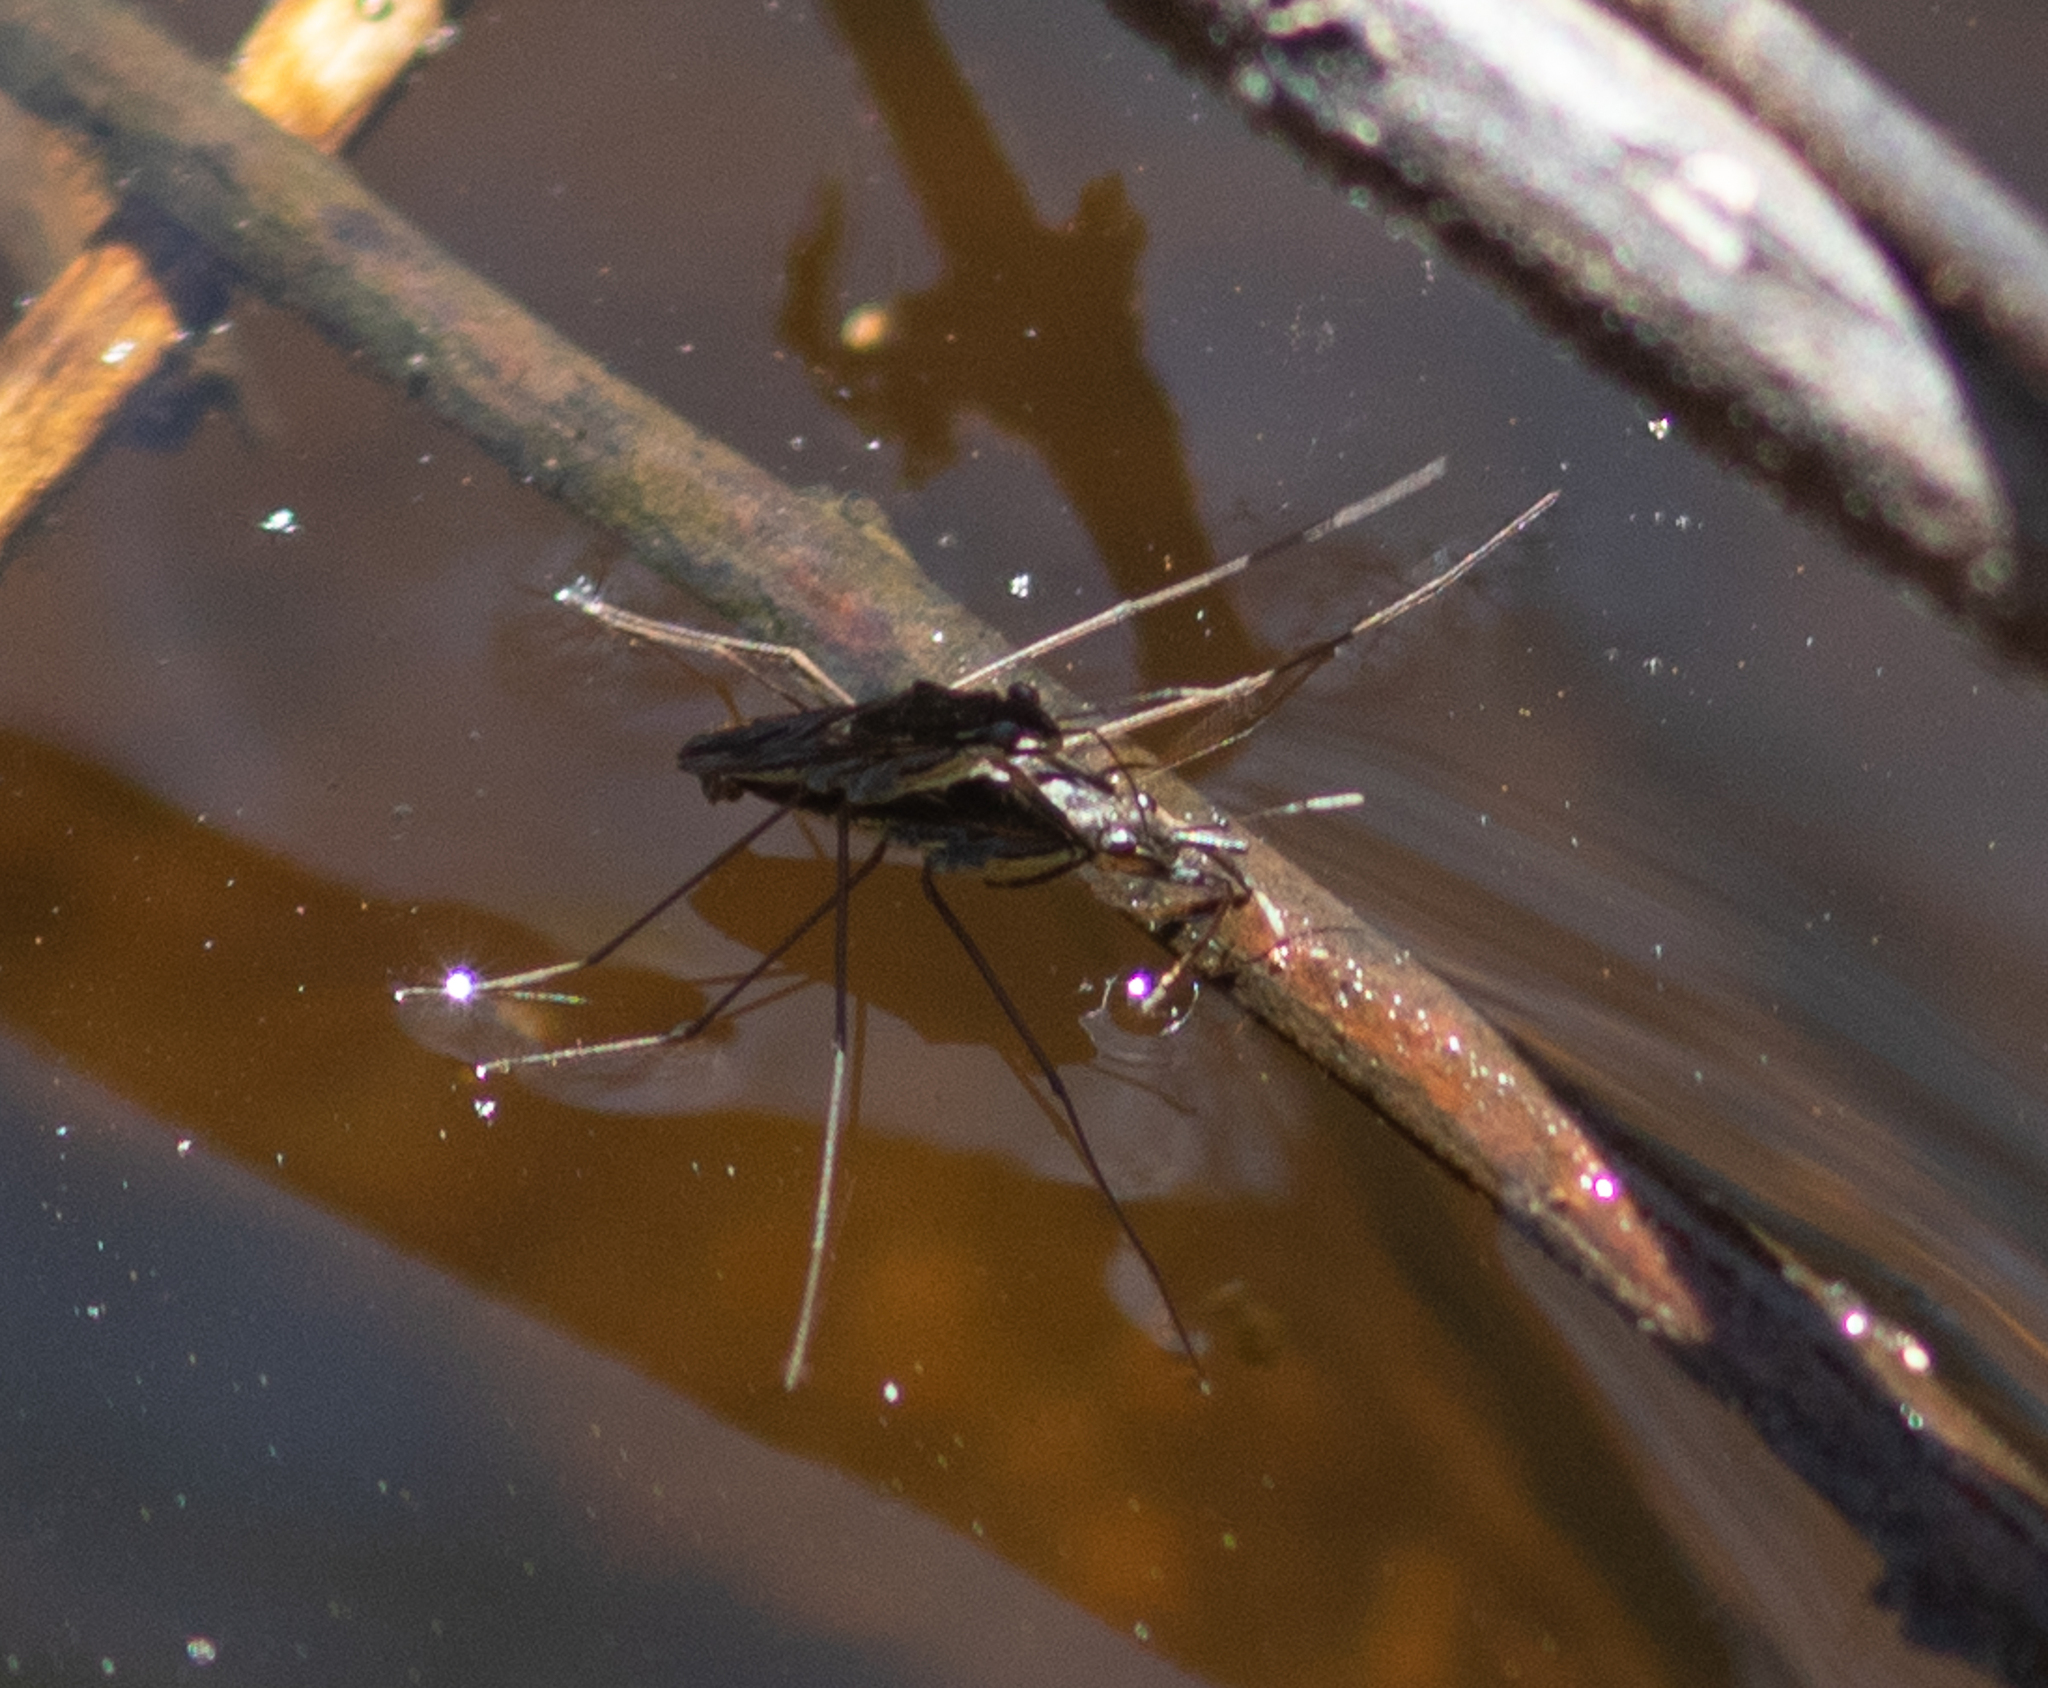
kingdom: Animalia
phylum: Arthropoda
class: Insecta
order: Hemiptera
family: Gerridae
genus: Gerris
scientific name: Gerris
